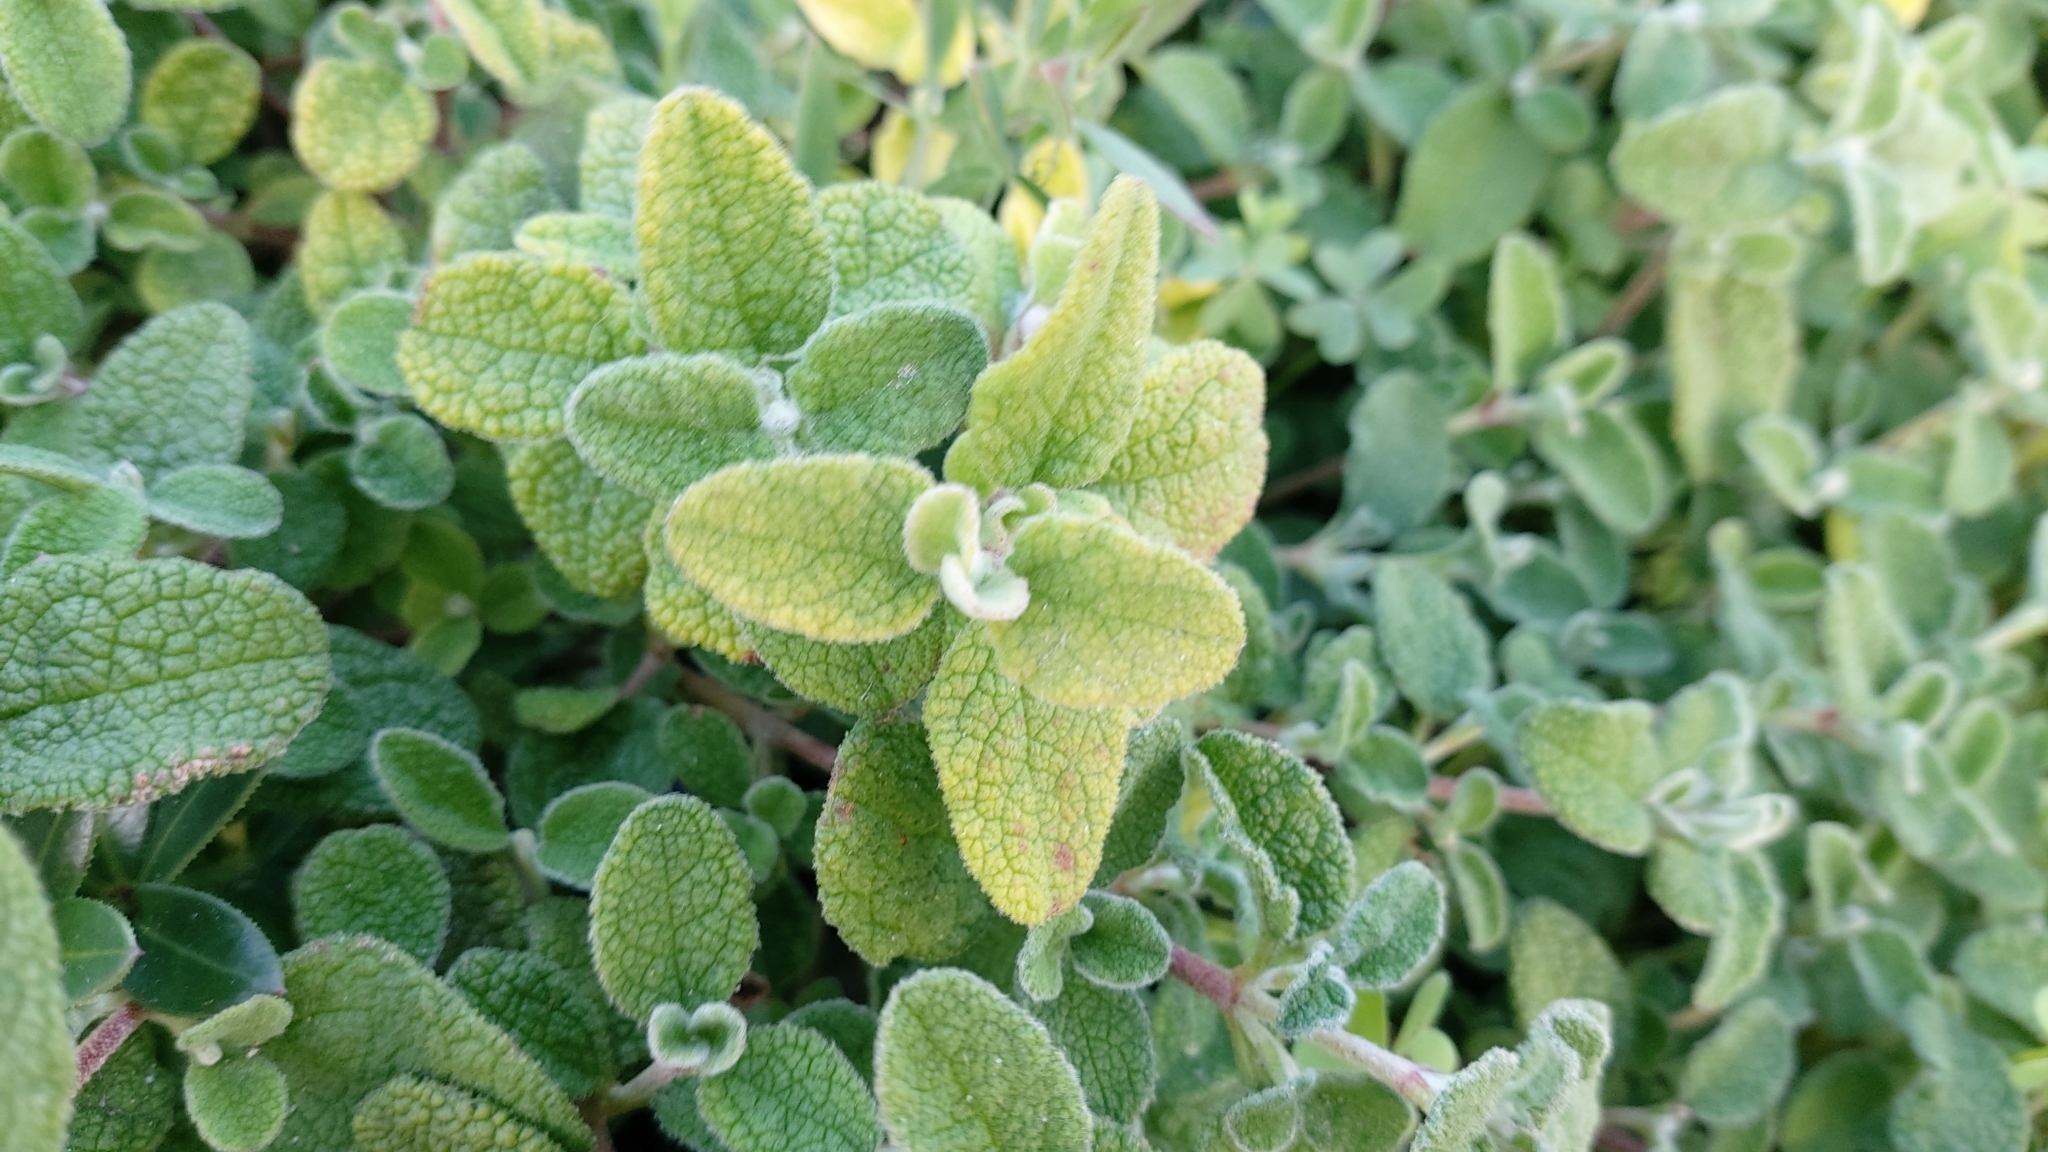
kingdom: Plantae
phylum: Tracheophyta
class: Magnoliopsida
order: Malvales
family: Cistaceae
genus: Cistus
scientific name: Cistus salviifolius
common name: Salvia cistus
